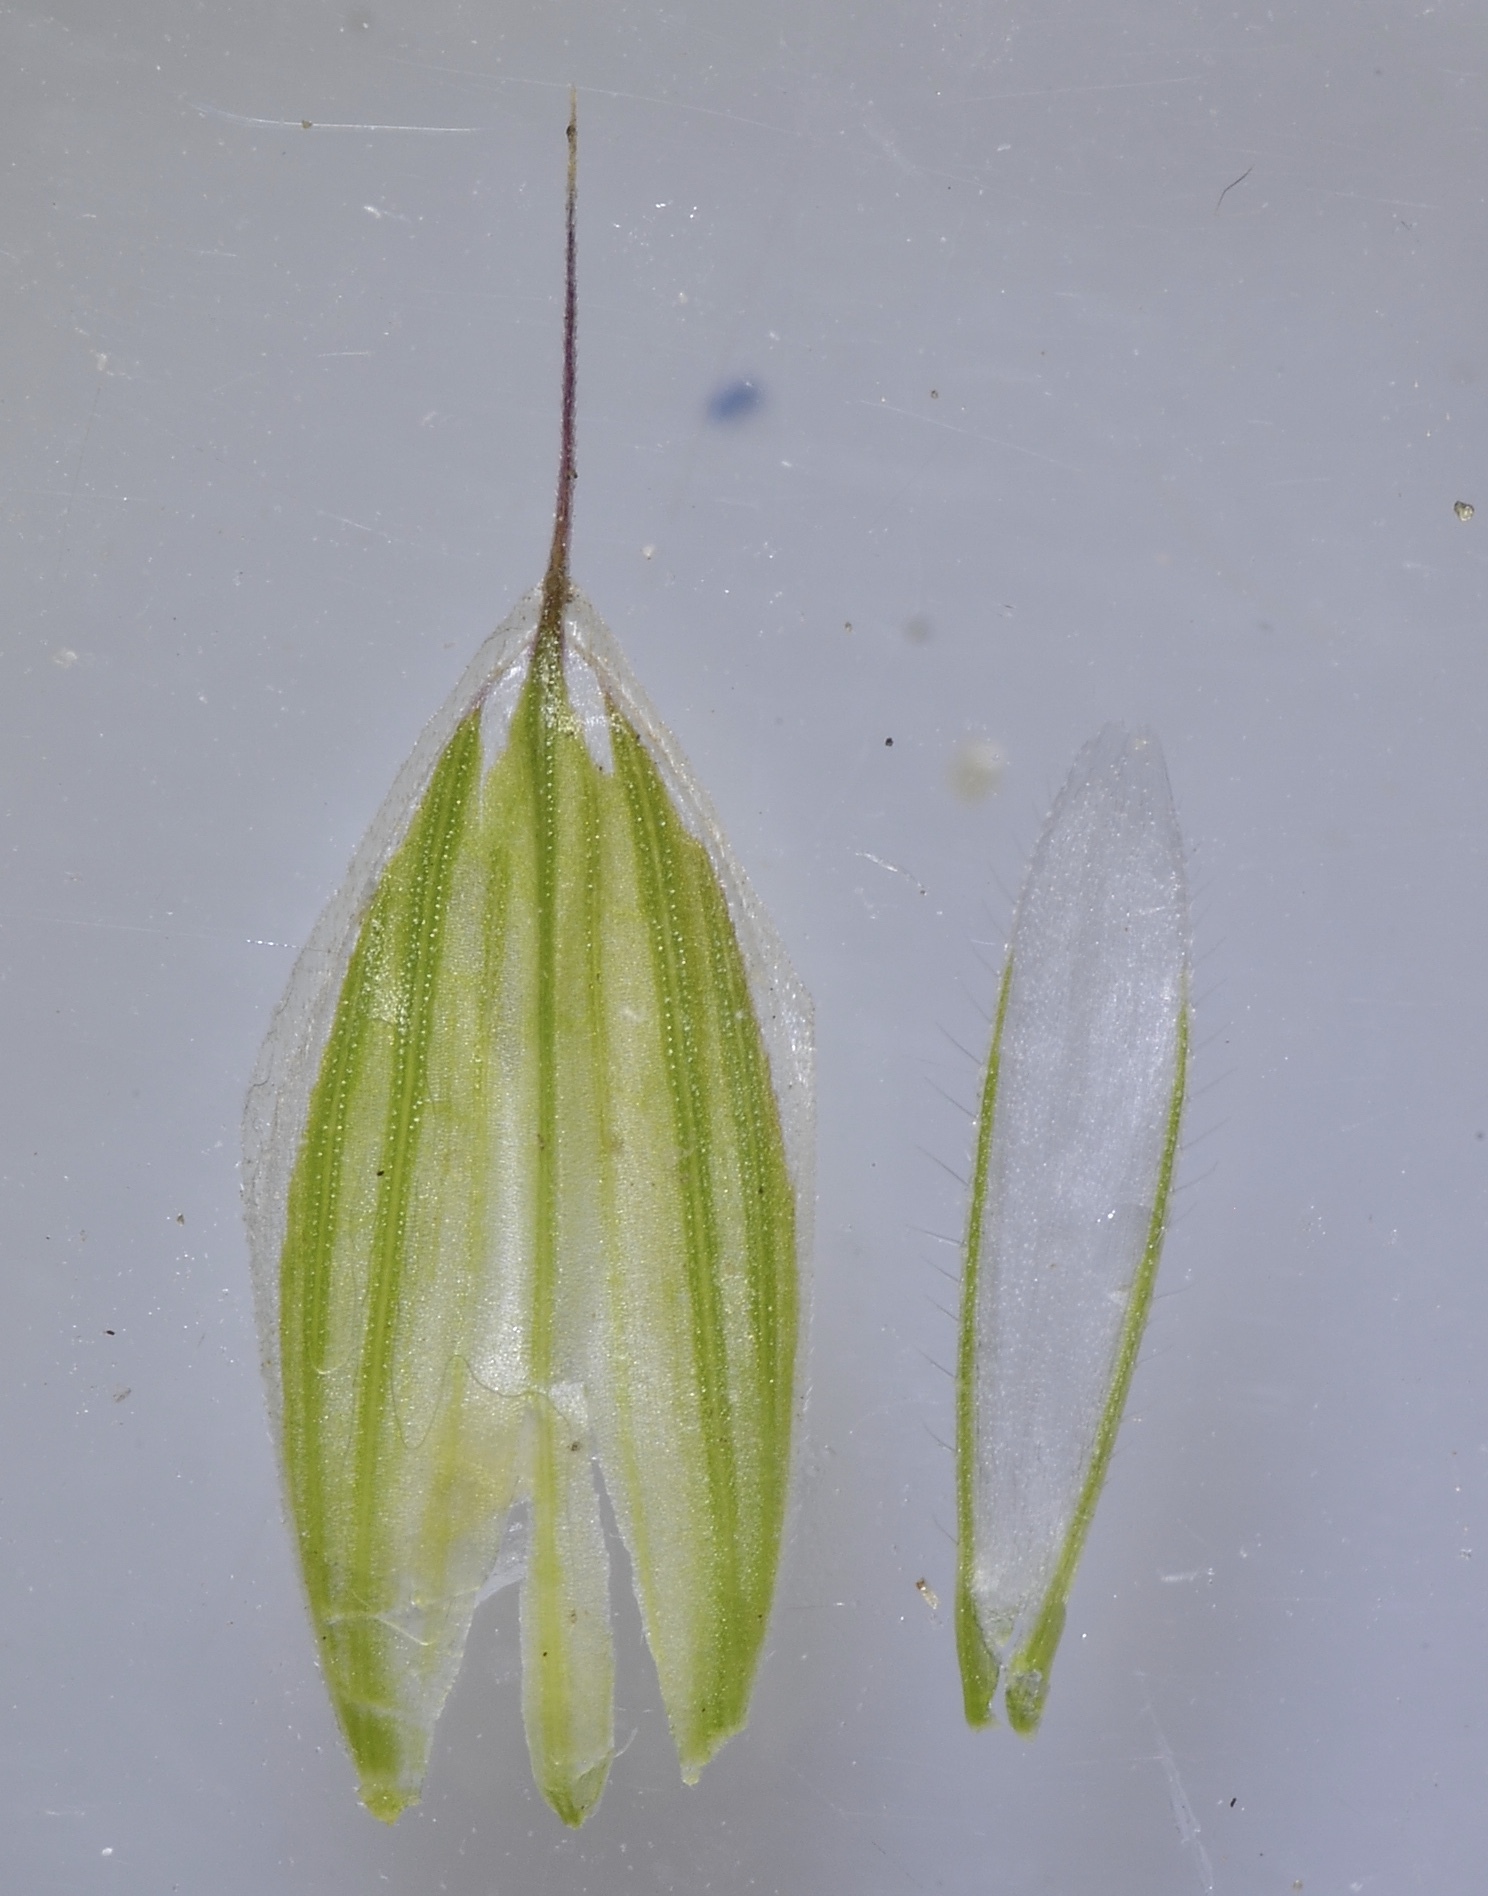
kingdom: Plantae
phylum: Tracheophyta
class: Liliopsida
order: Poales
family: Poaceae
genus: Bromus
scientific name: Bromus hordeaceus
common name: Soft brome
